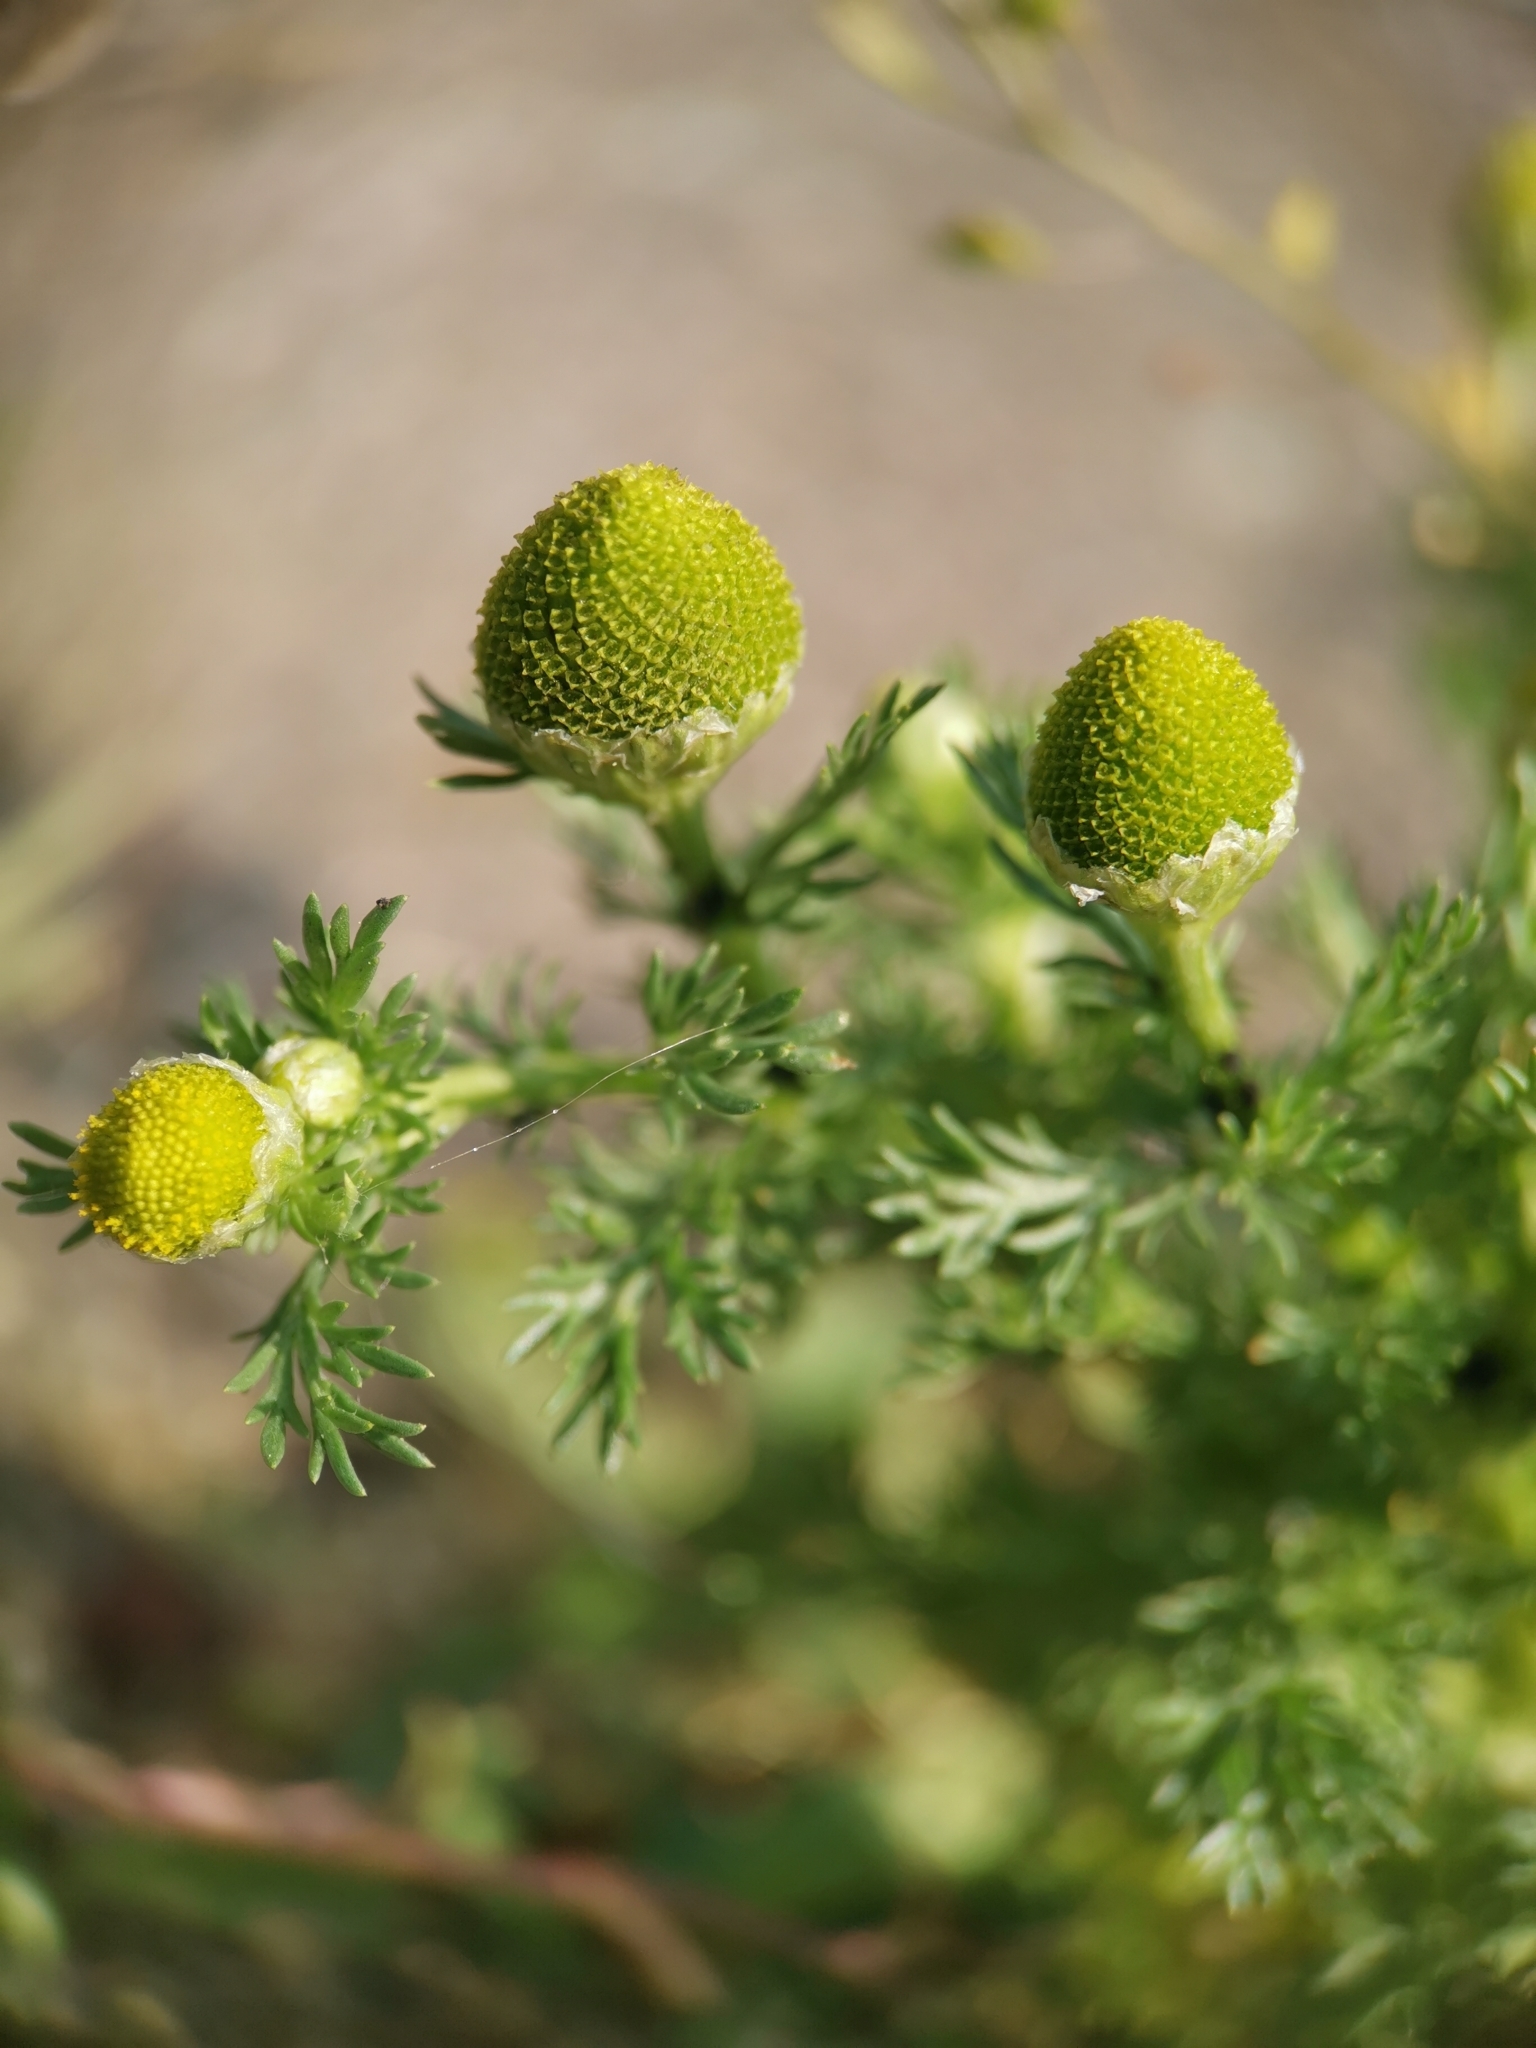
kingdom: Plantae
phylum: Tracheophyta
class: Magnoliopsida
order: Asterales
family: Asteraceae
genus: Matricaria
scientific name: Matricaria discoidea
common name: Disc mayweed
